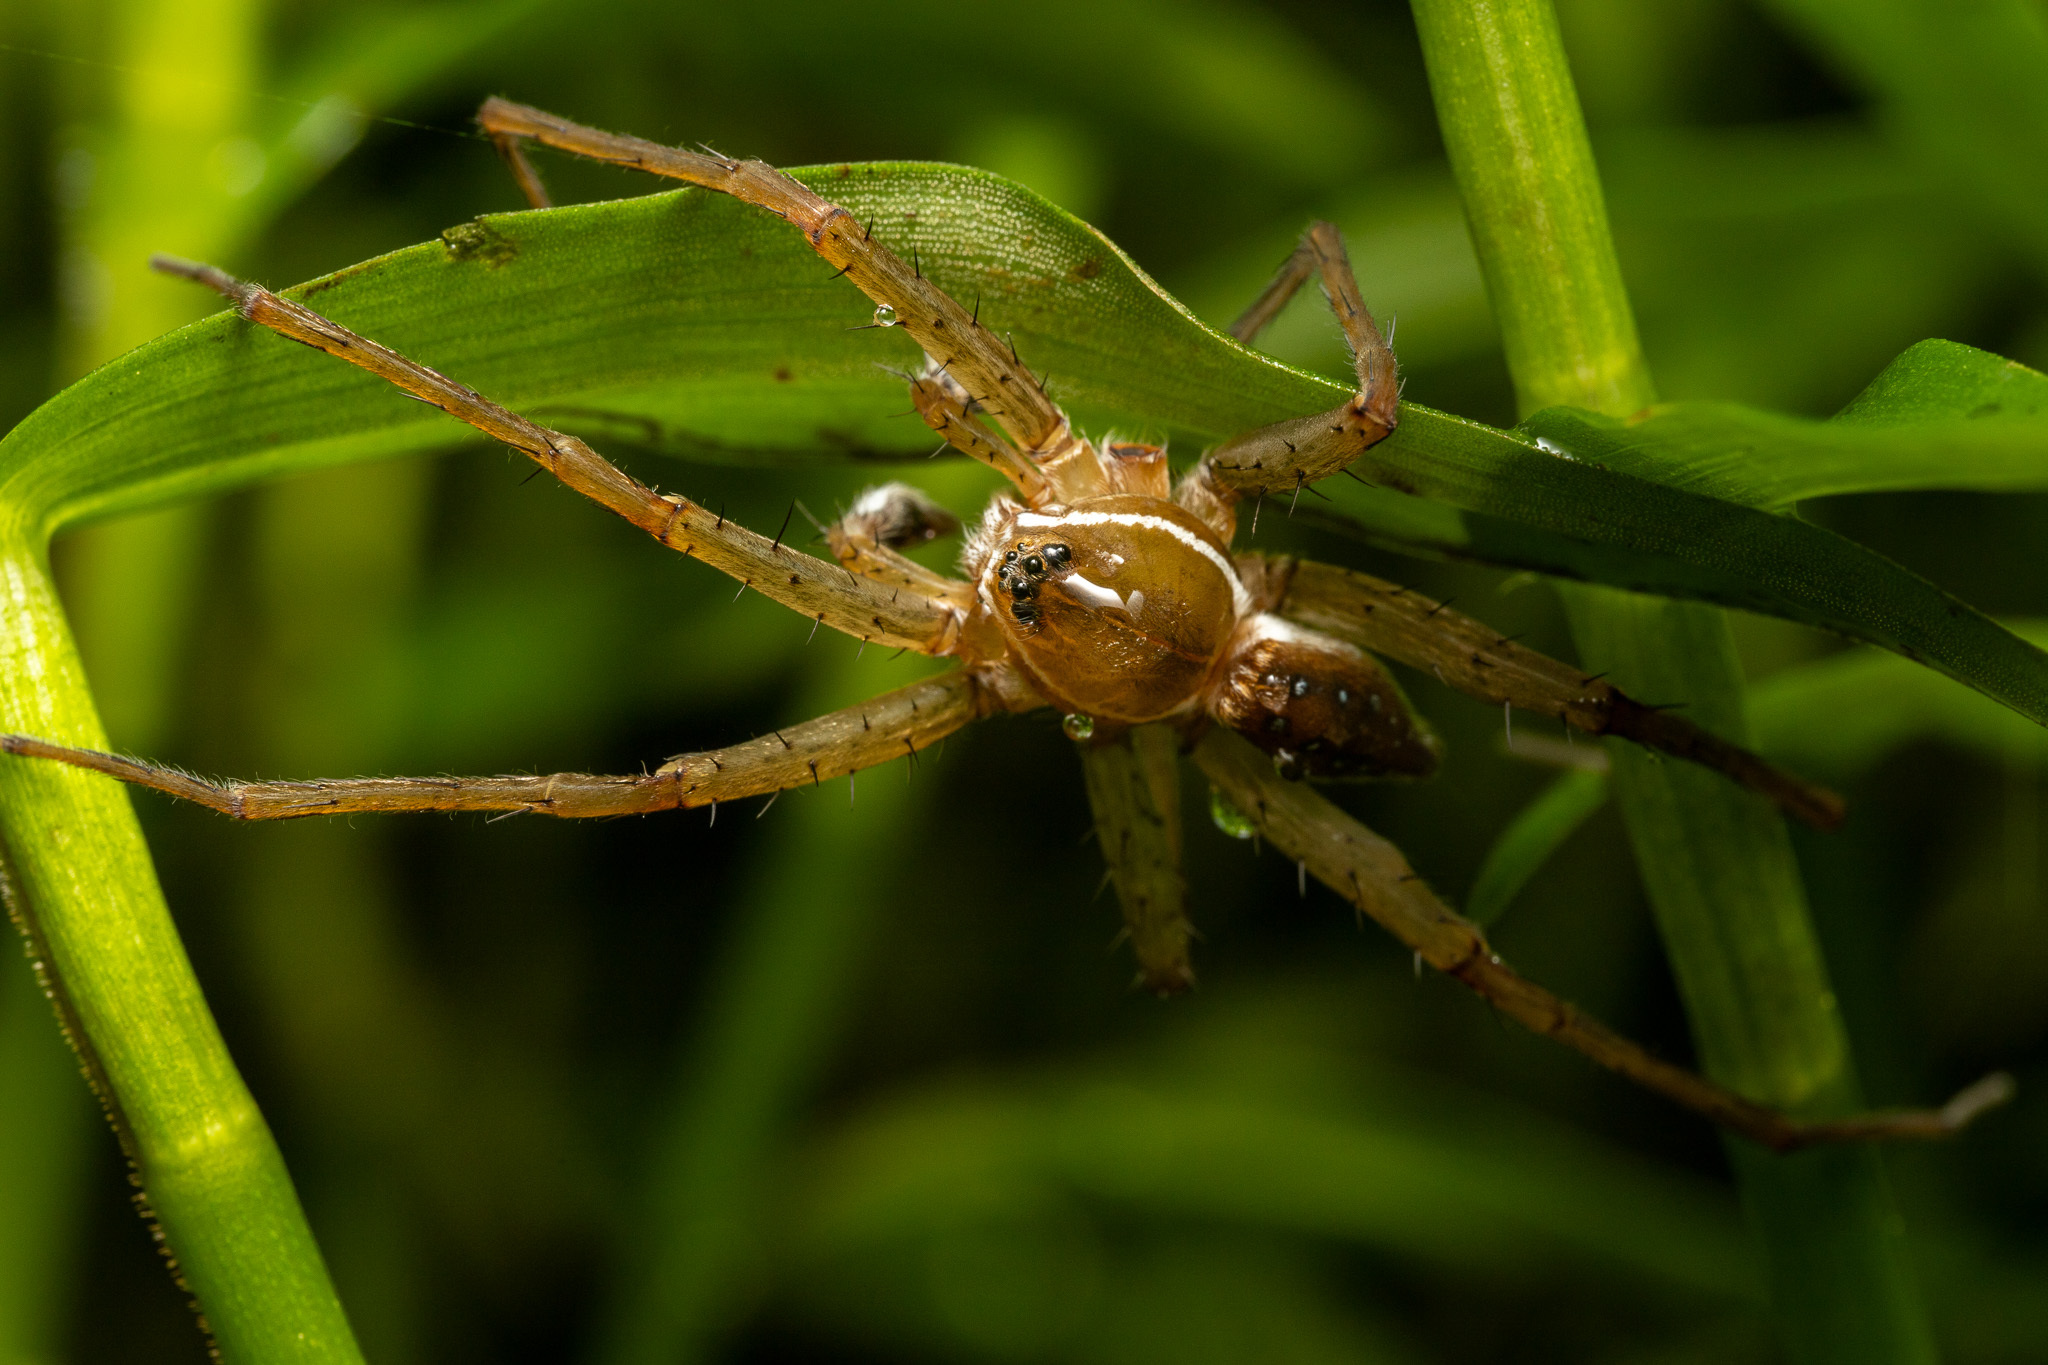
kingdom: Animalia
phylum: Arthropoda
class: Arachnida
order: Araneae
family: Pisauridae
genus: Dolomedes
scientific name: Dolomedes triton
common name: Six-spotted fishing spider
